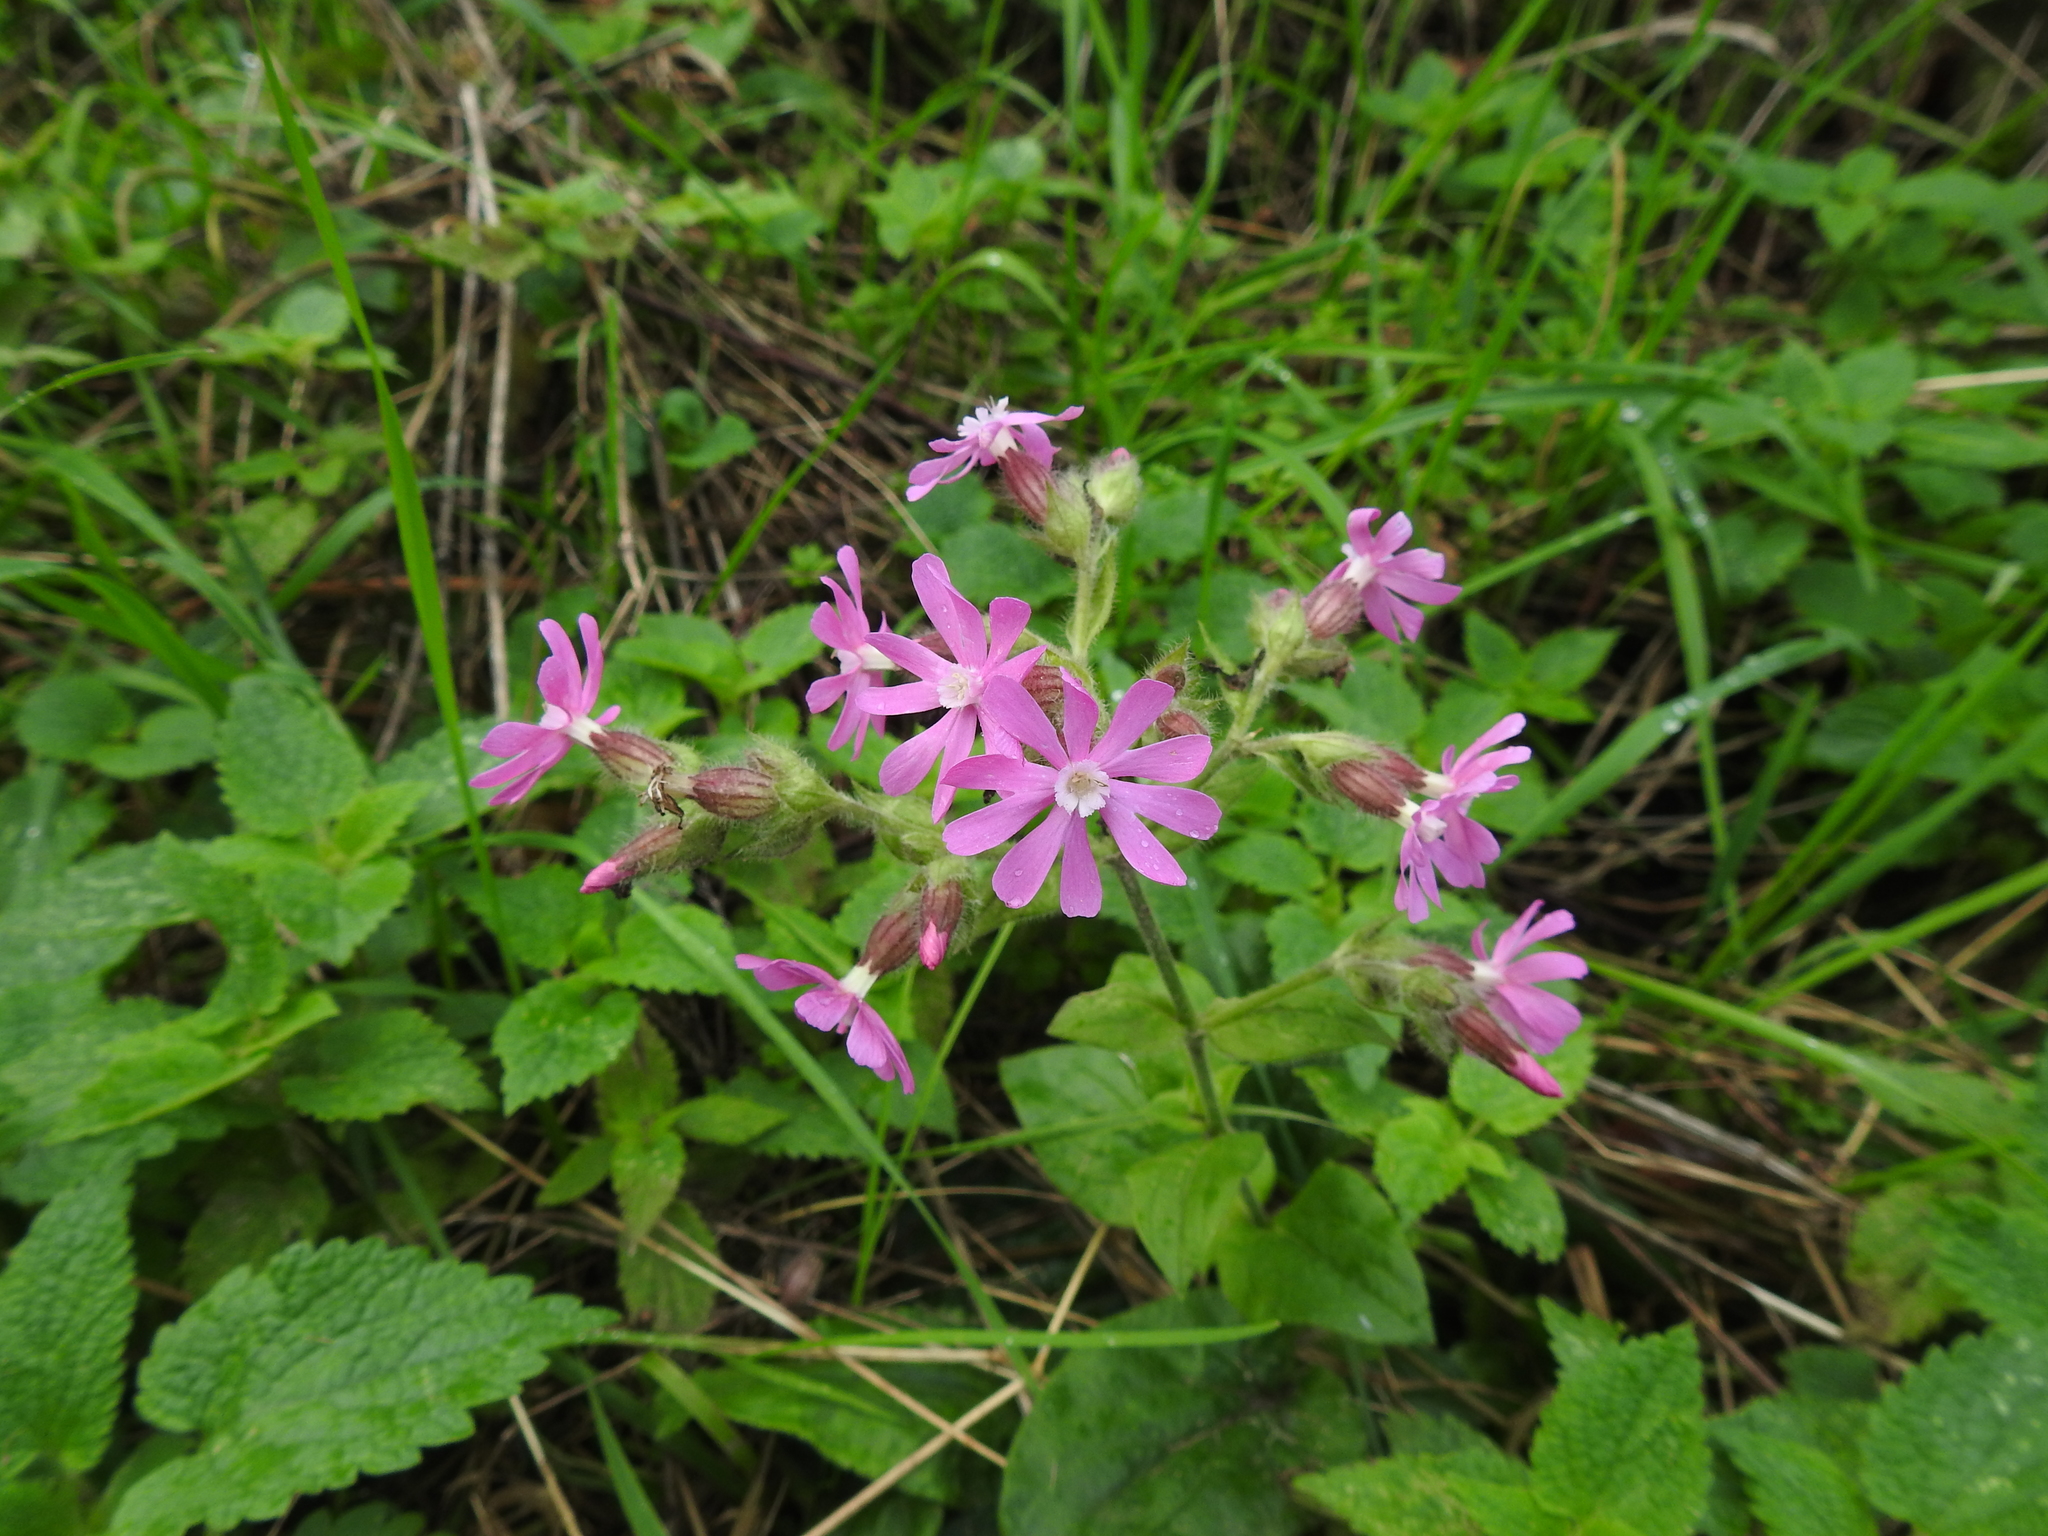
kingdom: Plantae
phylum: Tracheophyta
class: Magnoliopsida
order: Caryophyllales
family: Caryophyllaceae
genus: Silene
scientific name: Silene dioica
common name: Red campion
